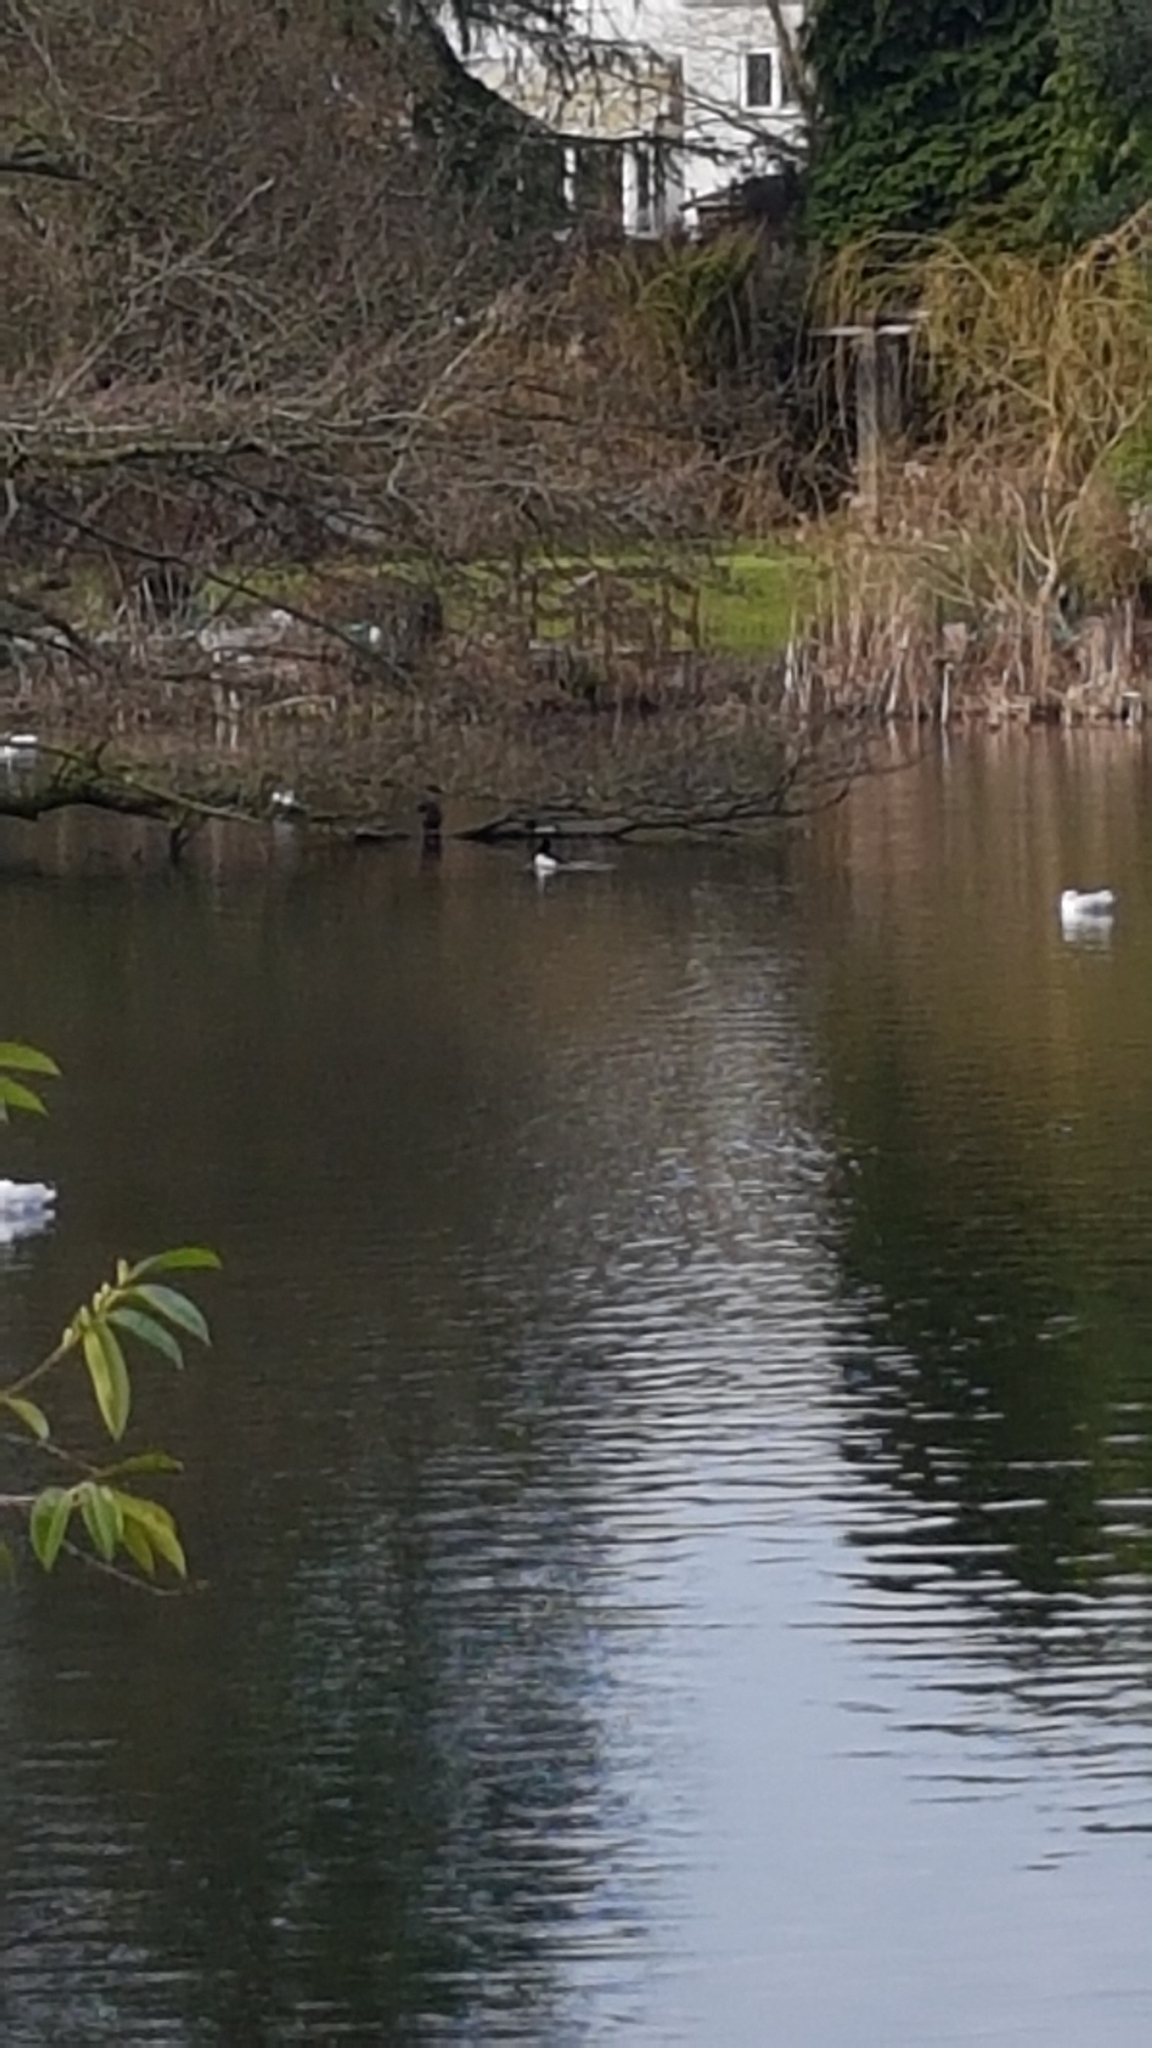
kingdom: Animalia
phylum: Chordata
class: Aves
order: Anseriformes
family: Anatidae
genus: Aythya
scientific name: Aythya fuligula
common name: Tufted duck
